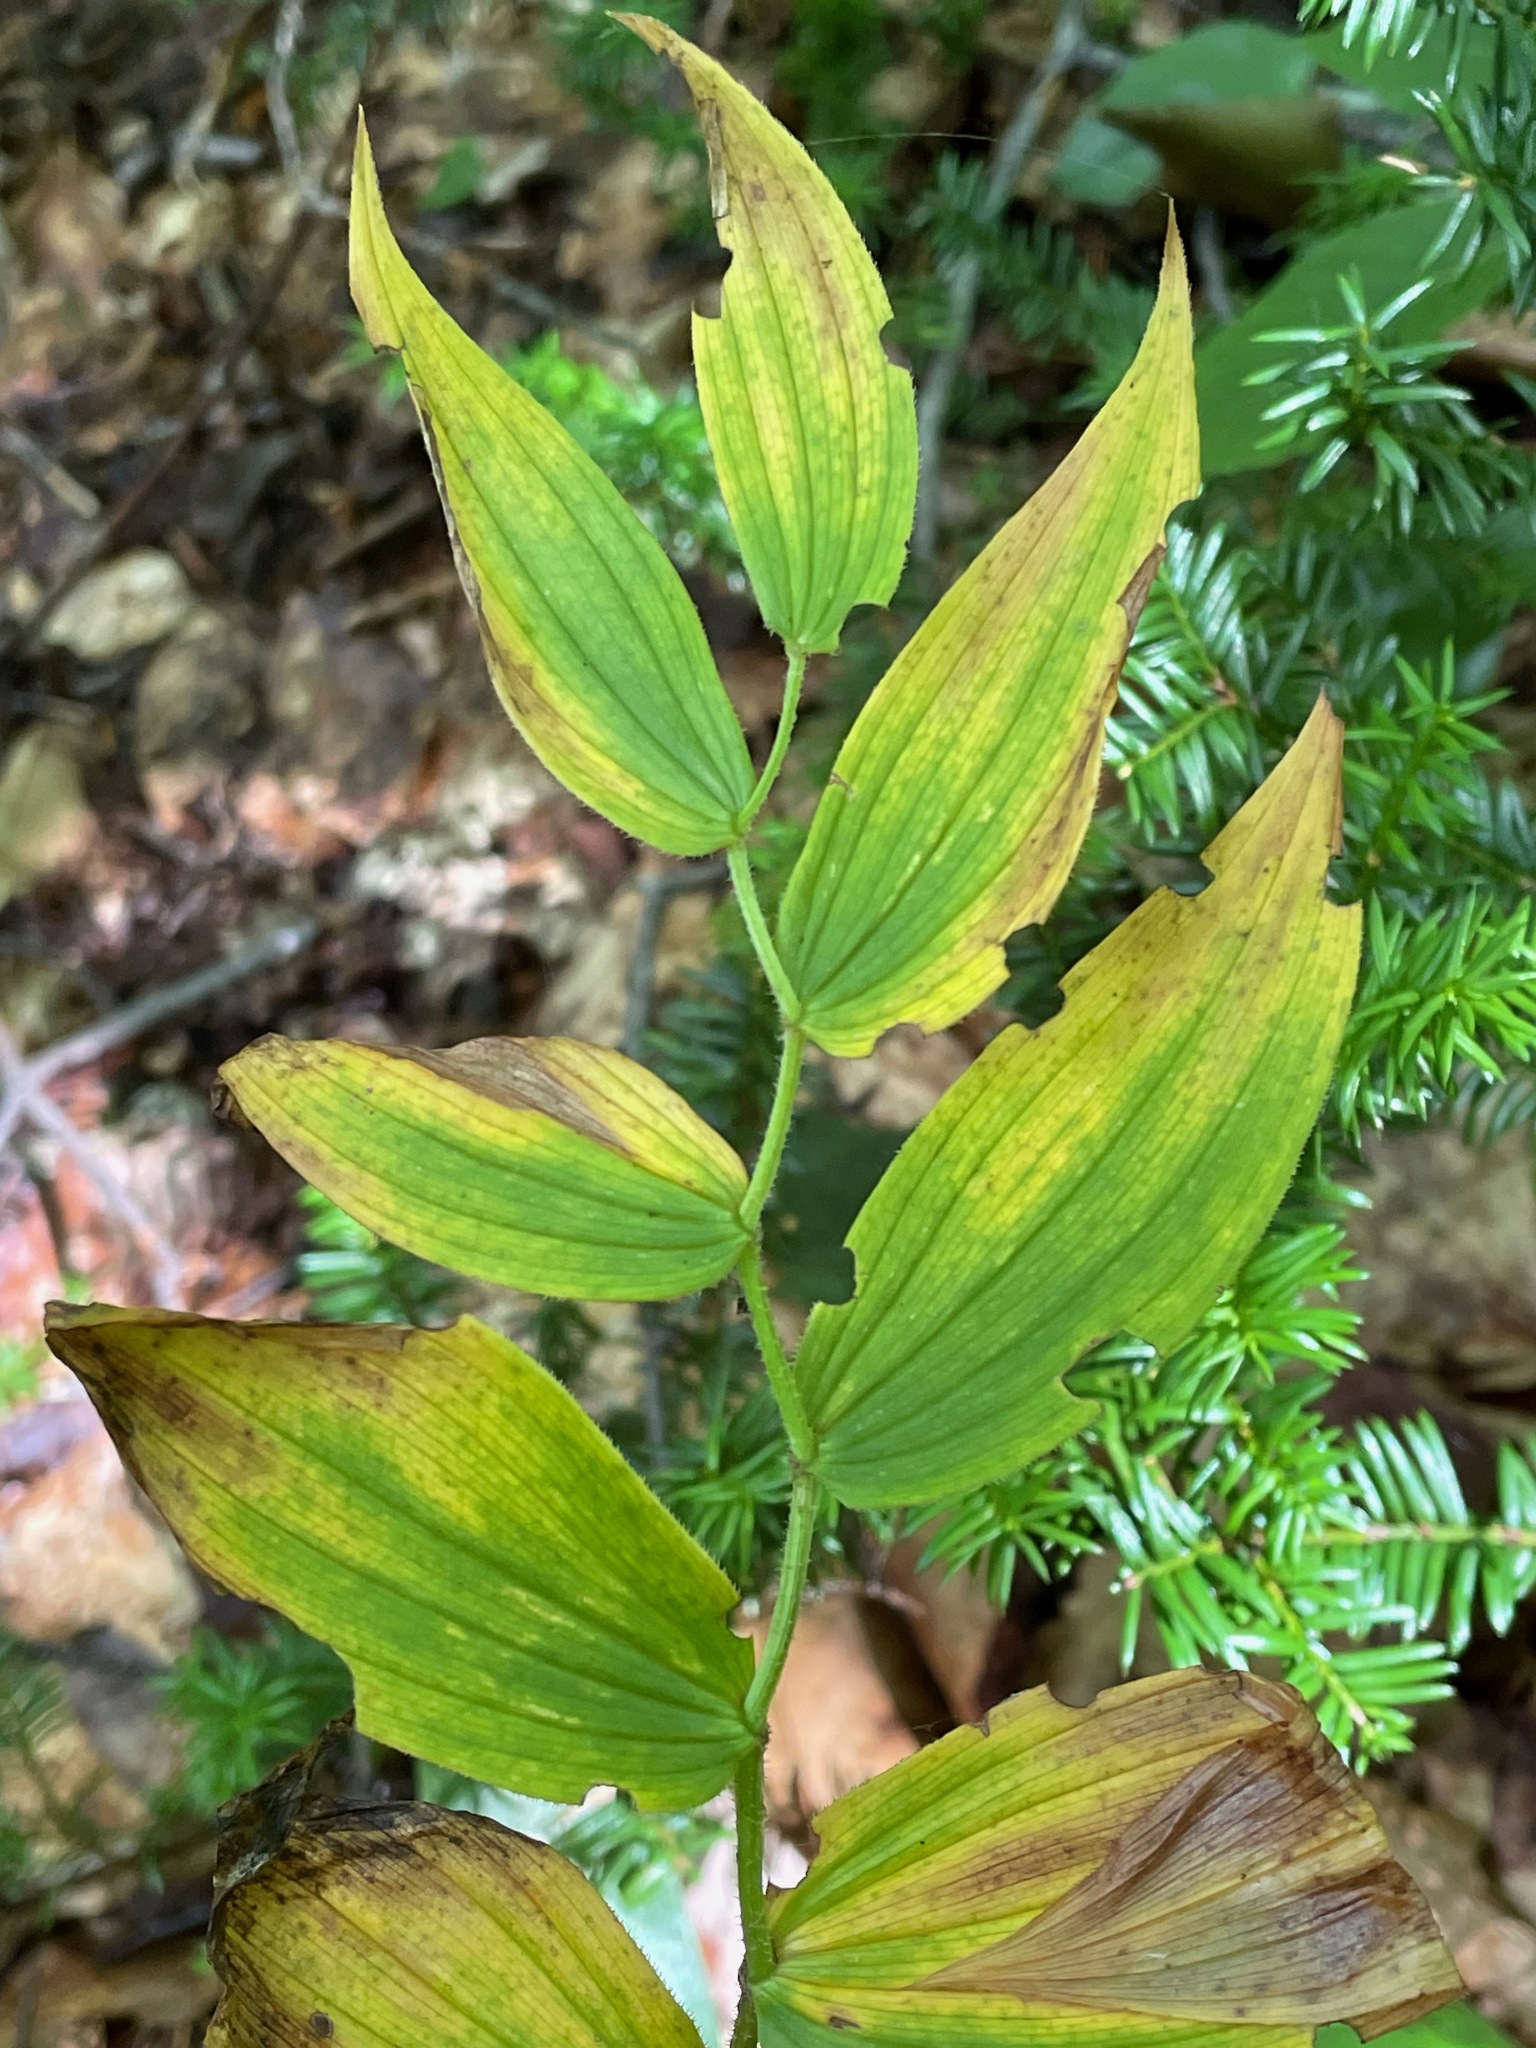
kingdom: Plantae
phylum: Tracheophyta
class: Liliopsida
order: Liliales
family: Liliaceae
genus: Streptopus
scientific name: Streptopus lanceolatus
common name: Rose mandarin
